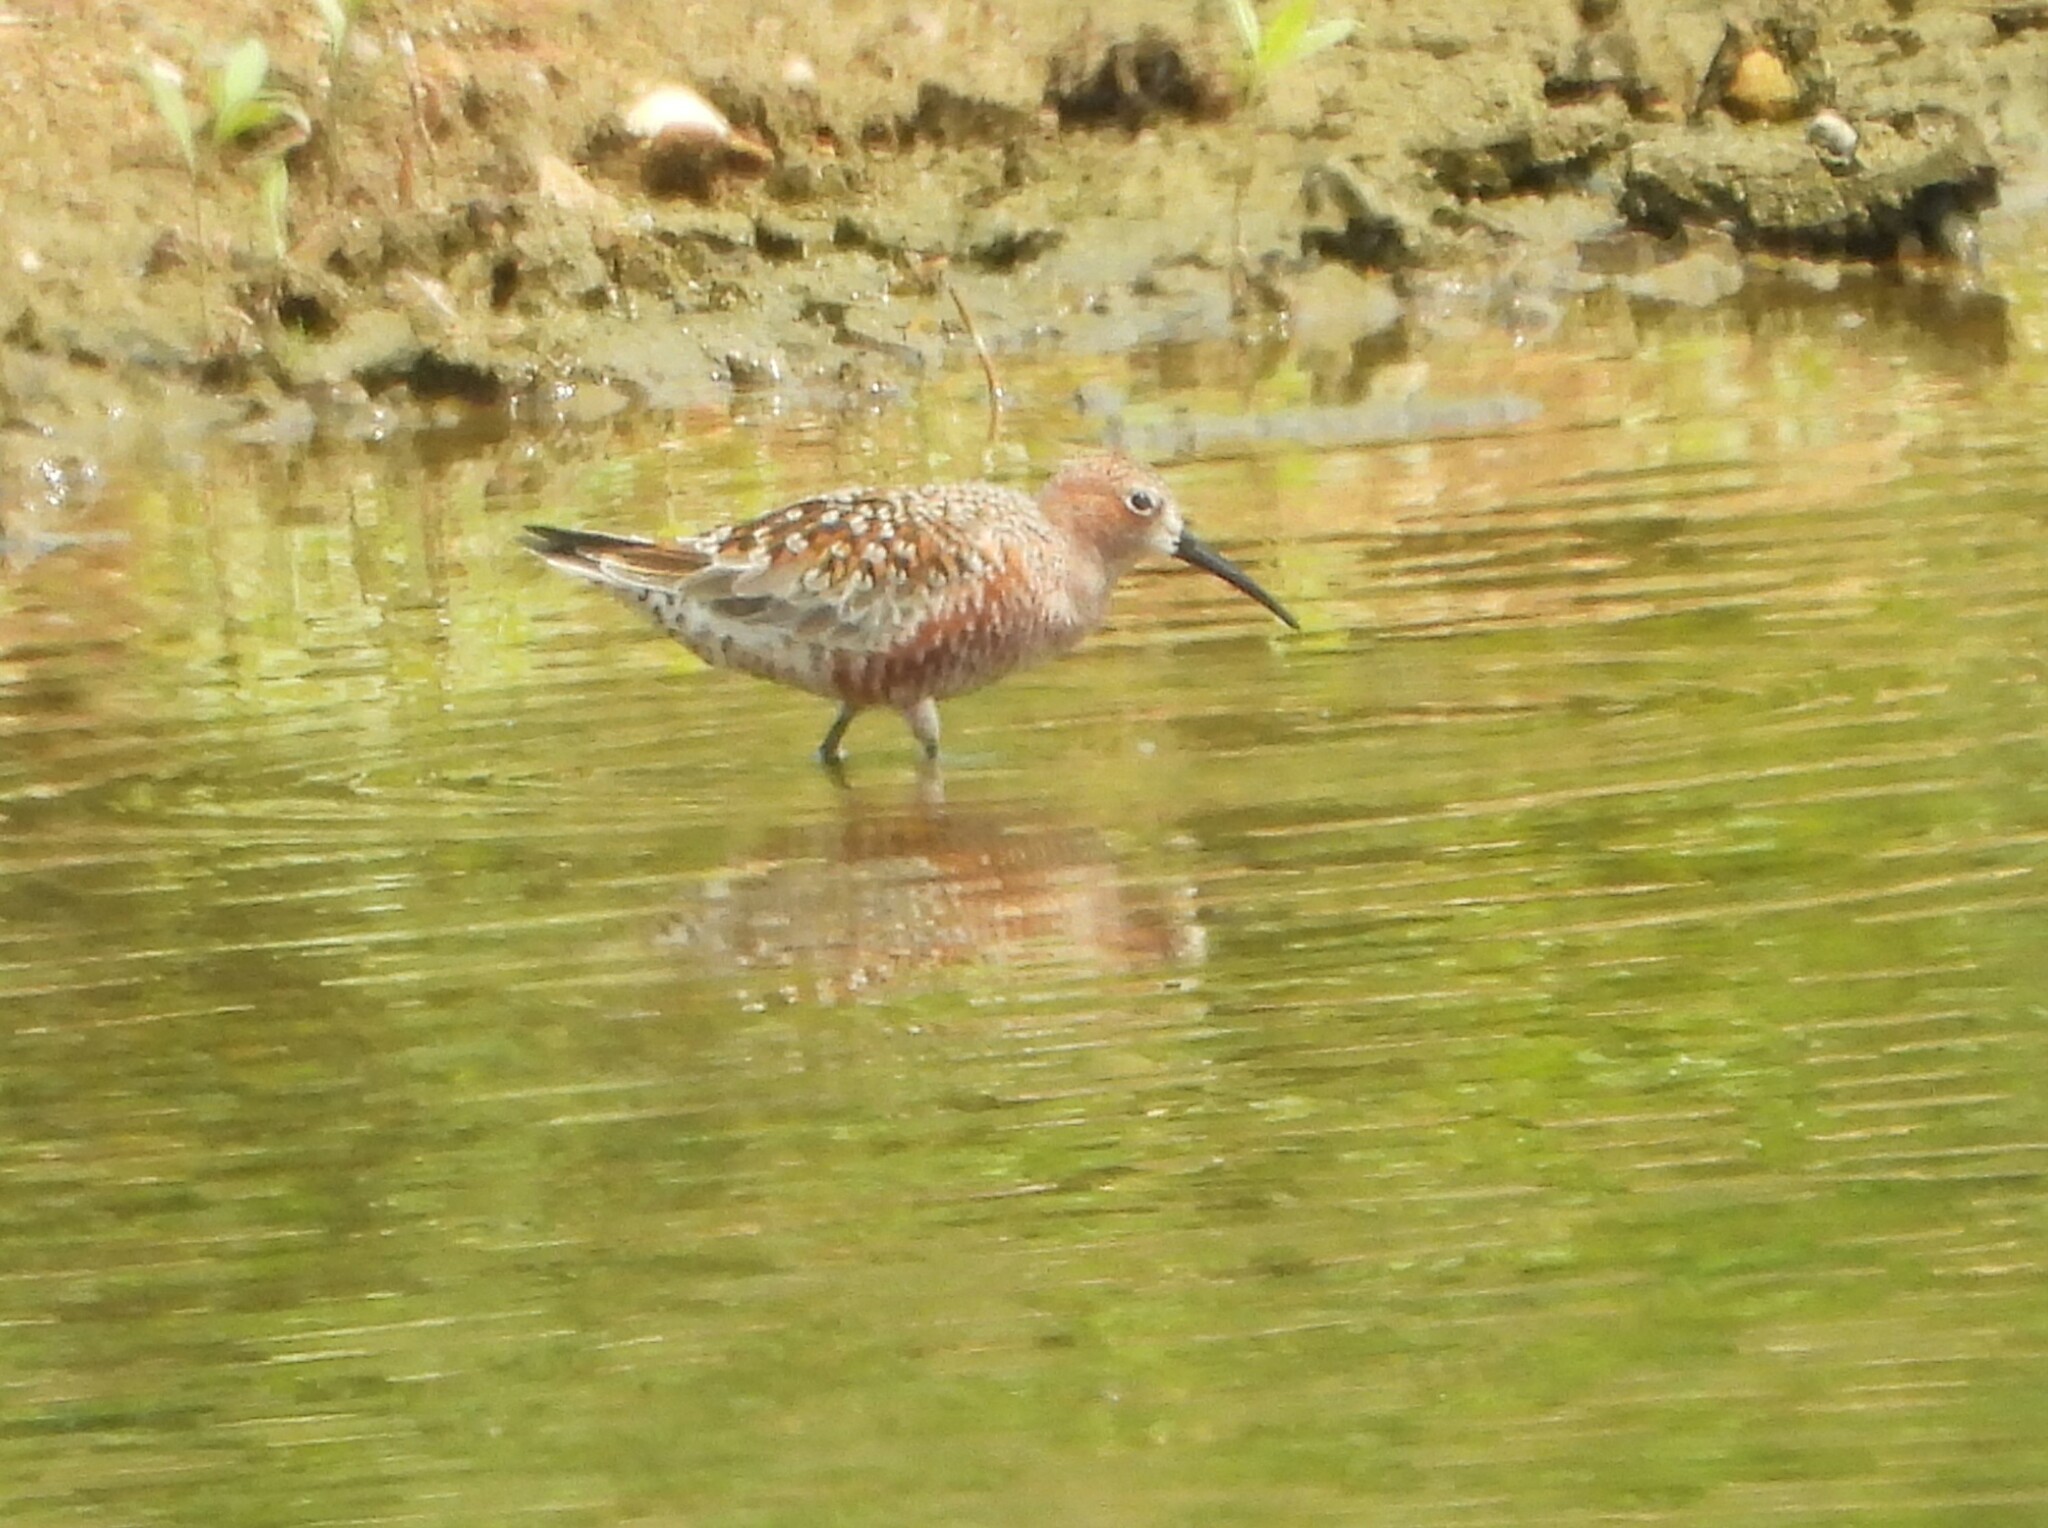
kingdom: Animalia
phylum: Chordata
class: Aves
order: Charadriiformes
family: Scolopacidae
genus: Calidris
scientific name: Calidris ferruginea
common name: Curlew sandpiper
